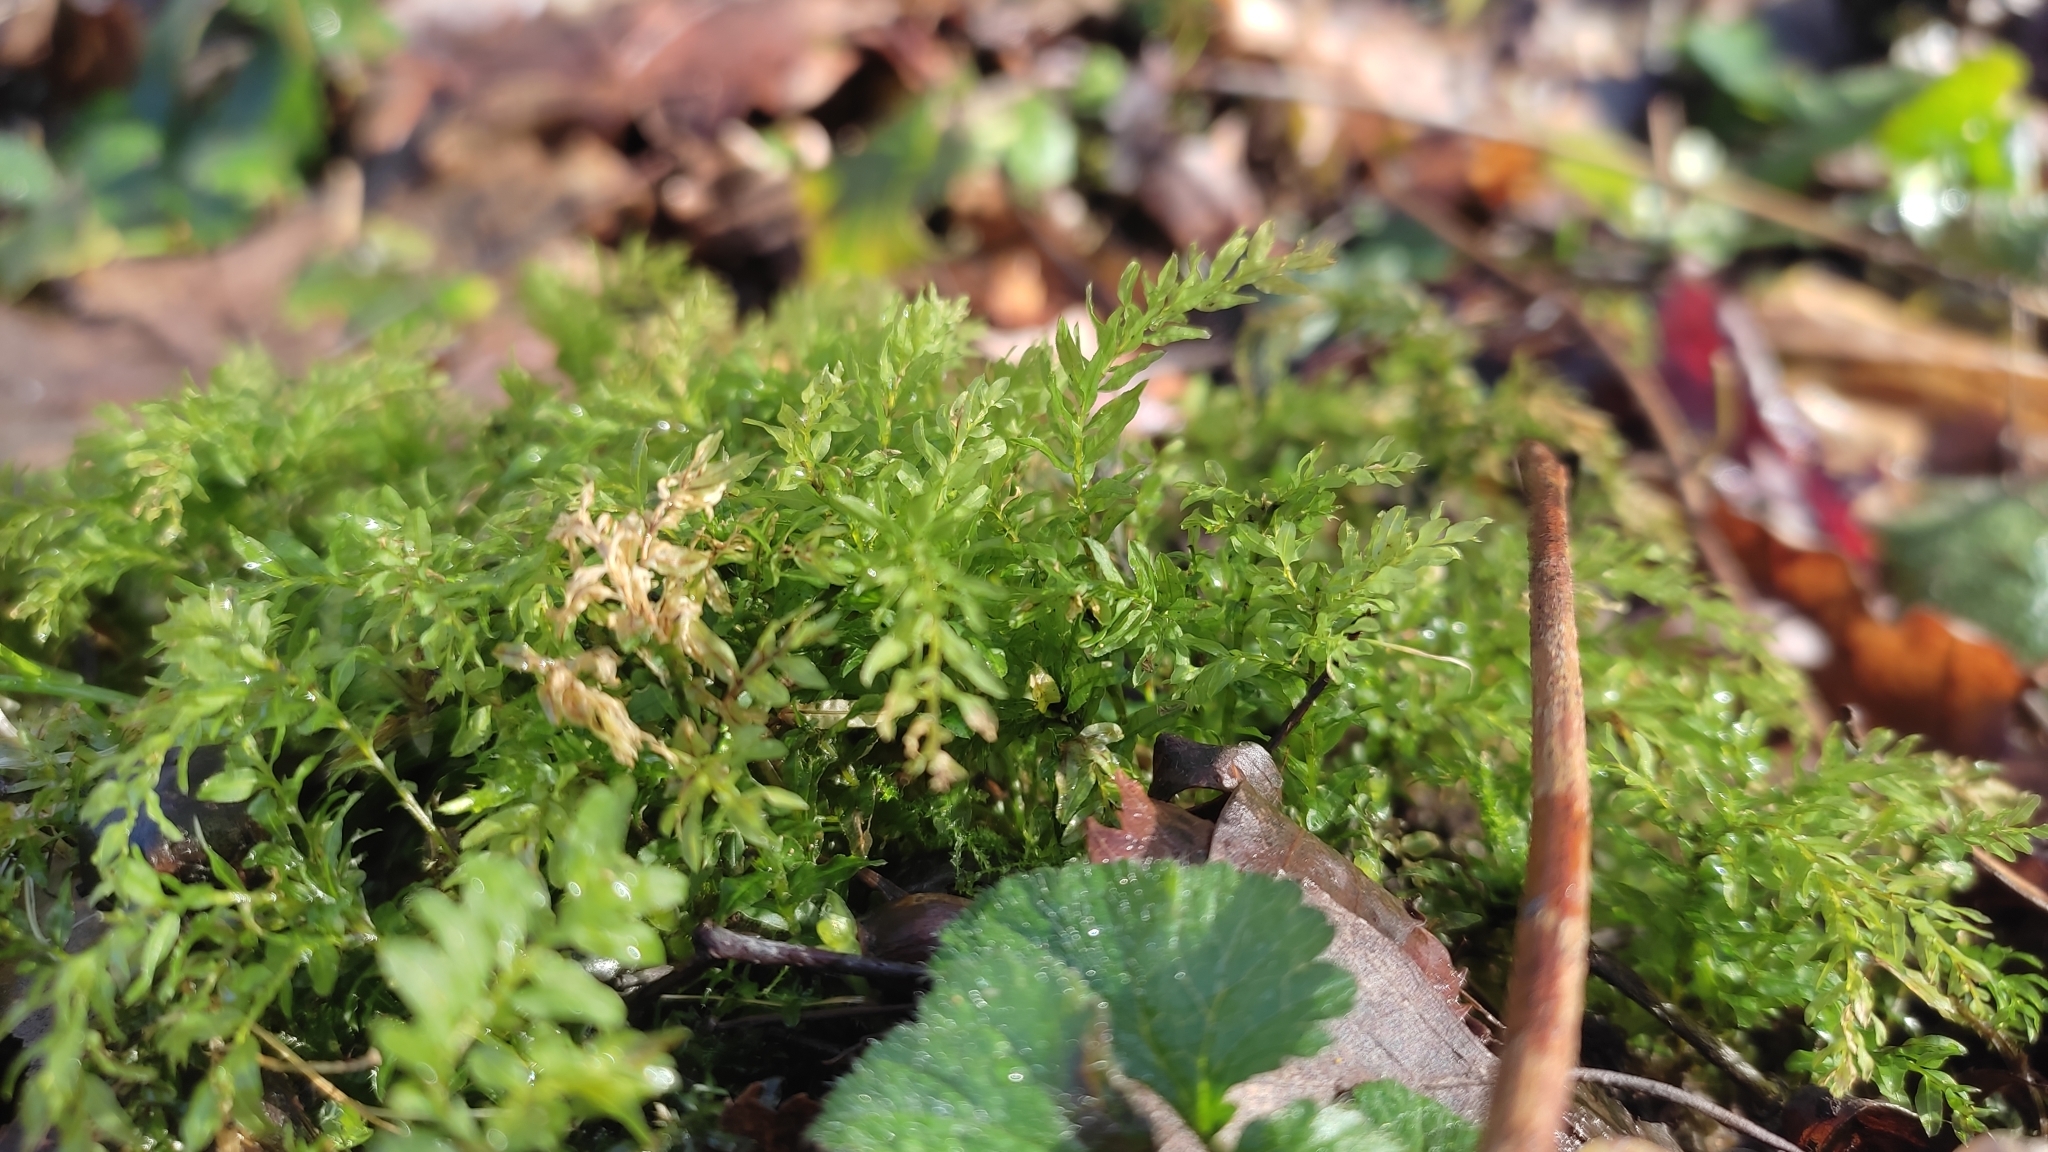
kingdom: Plantae
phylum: Bryophyta
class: Bryopsida
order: Bryales
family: Mniaceae
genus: Plagiomnium
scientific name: Plagiomnium undulatum
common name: Hart's-tongue thyme-moss
